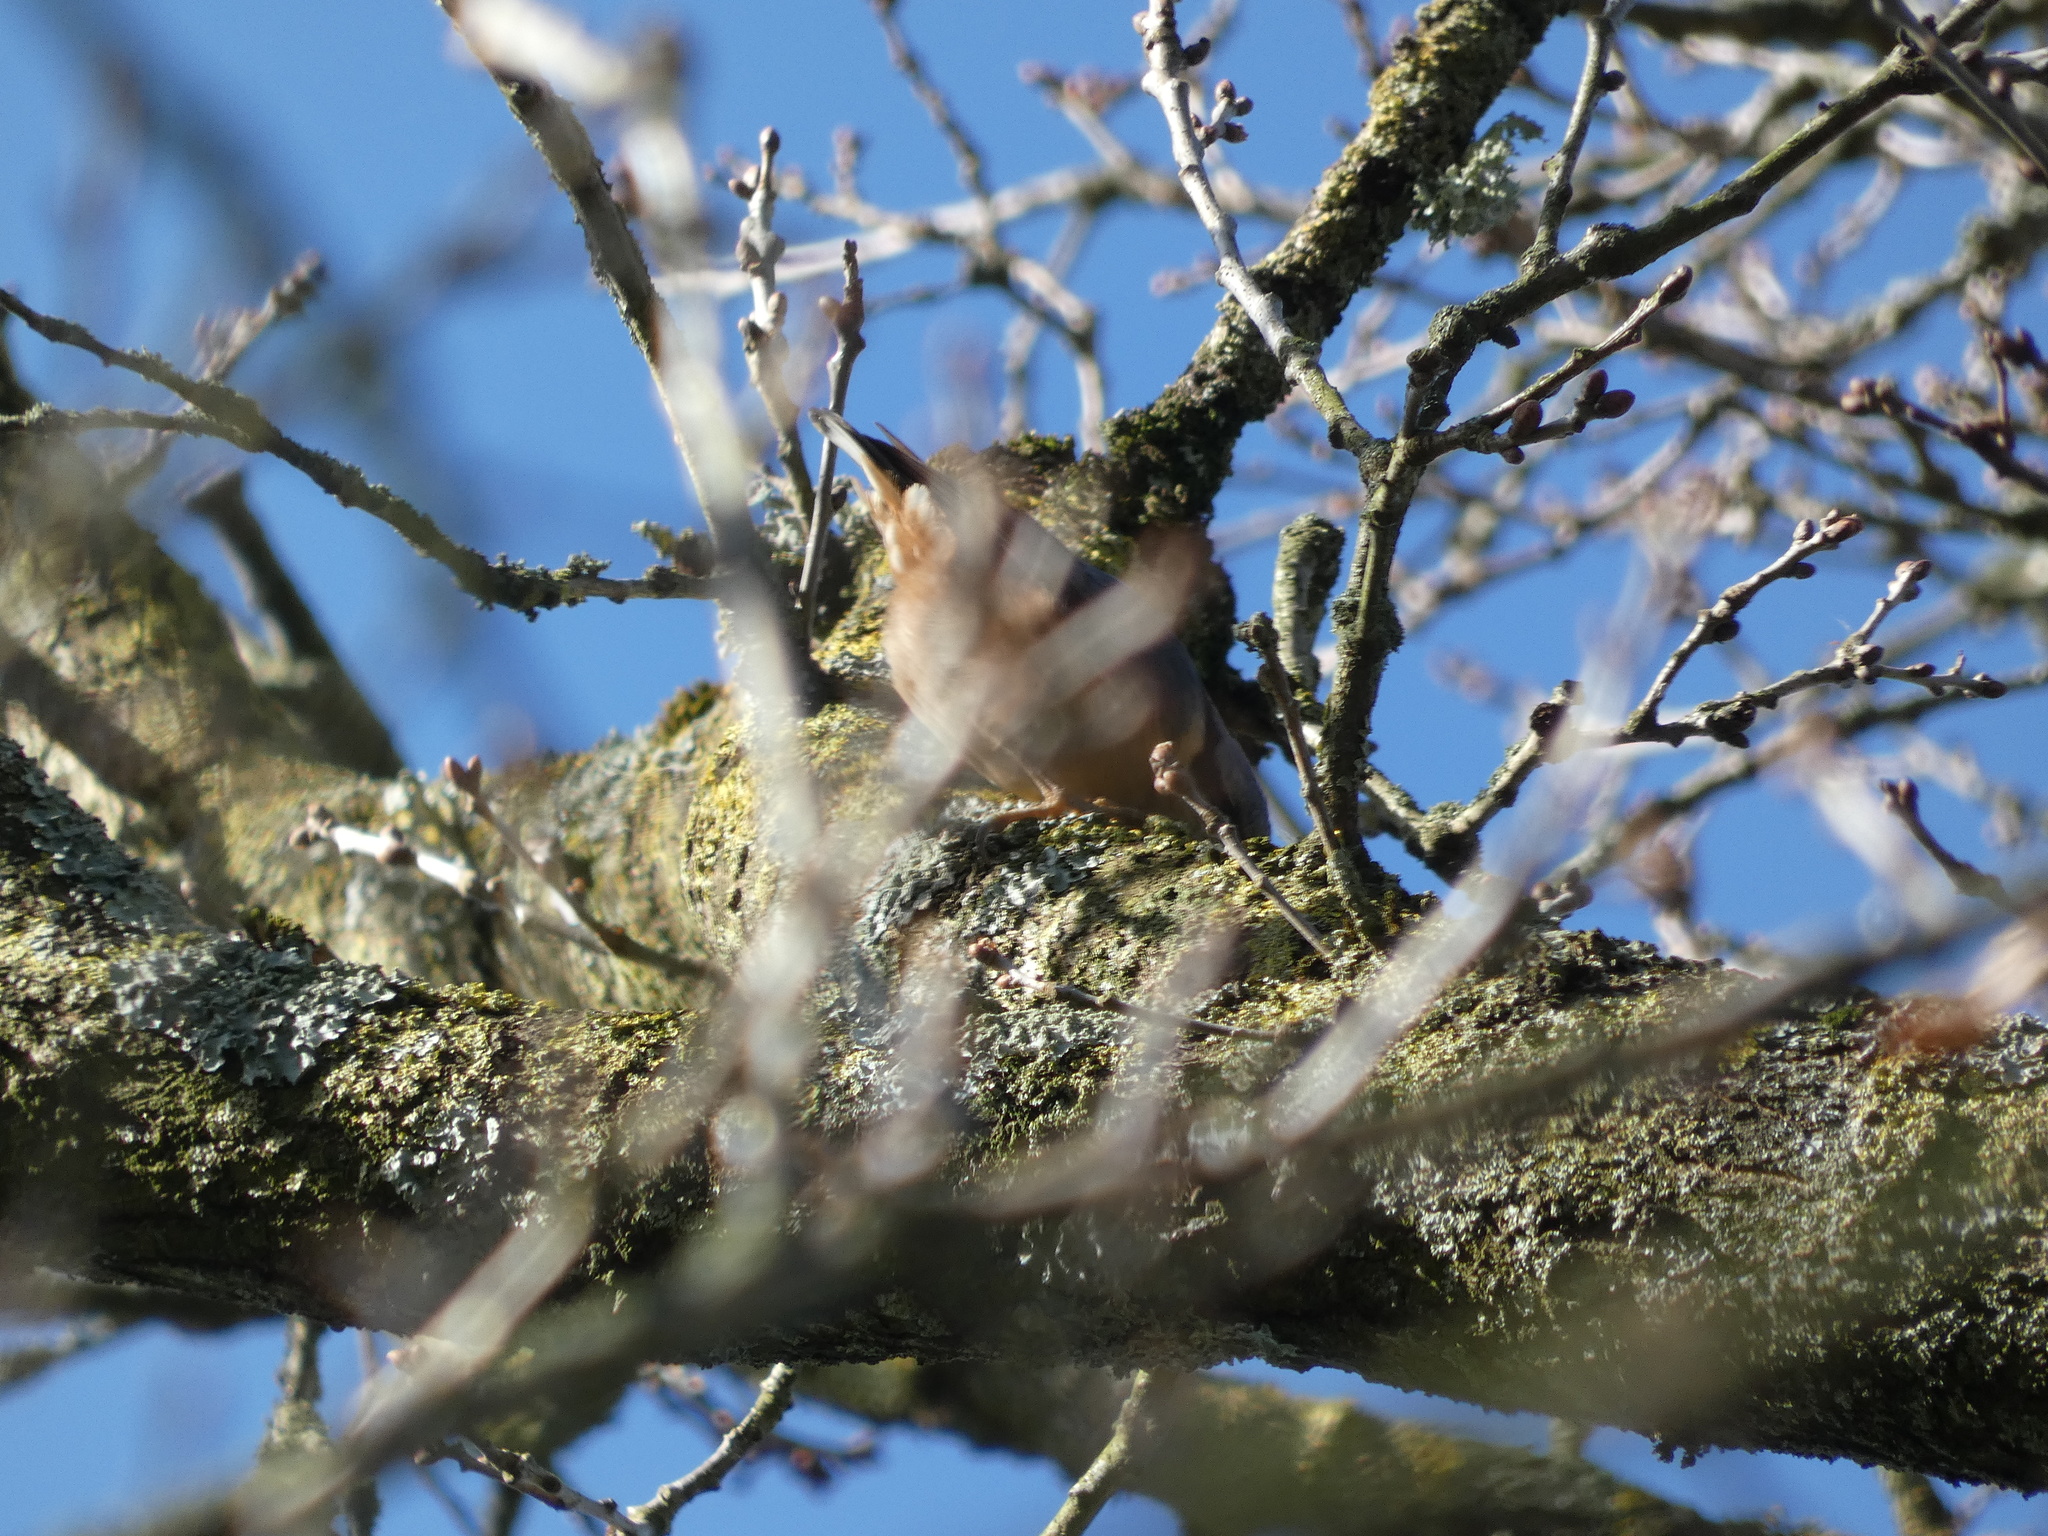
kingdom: Animalia
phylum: Chordata
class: Aves
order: Passeriformes
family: Sittidae
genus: Sitta
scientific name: Sitta europaea
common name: Eurasian nuthatch
